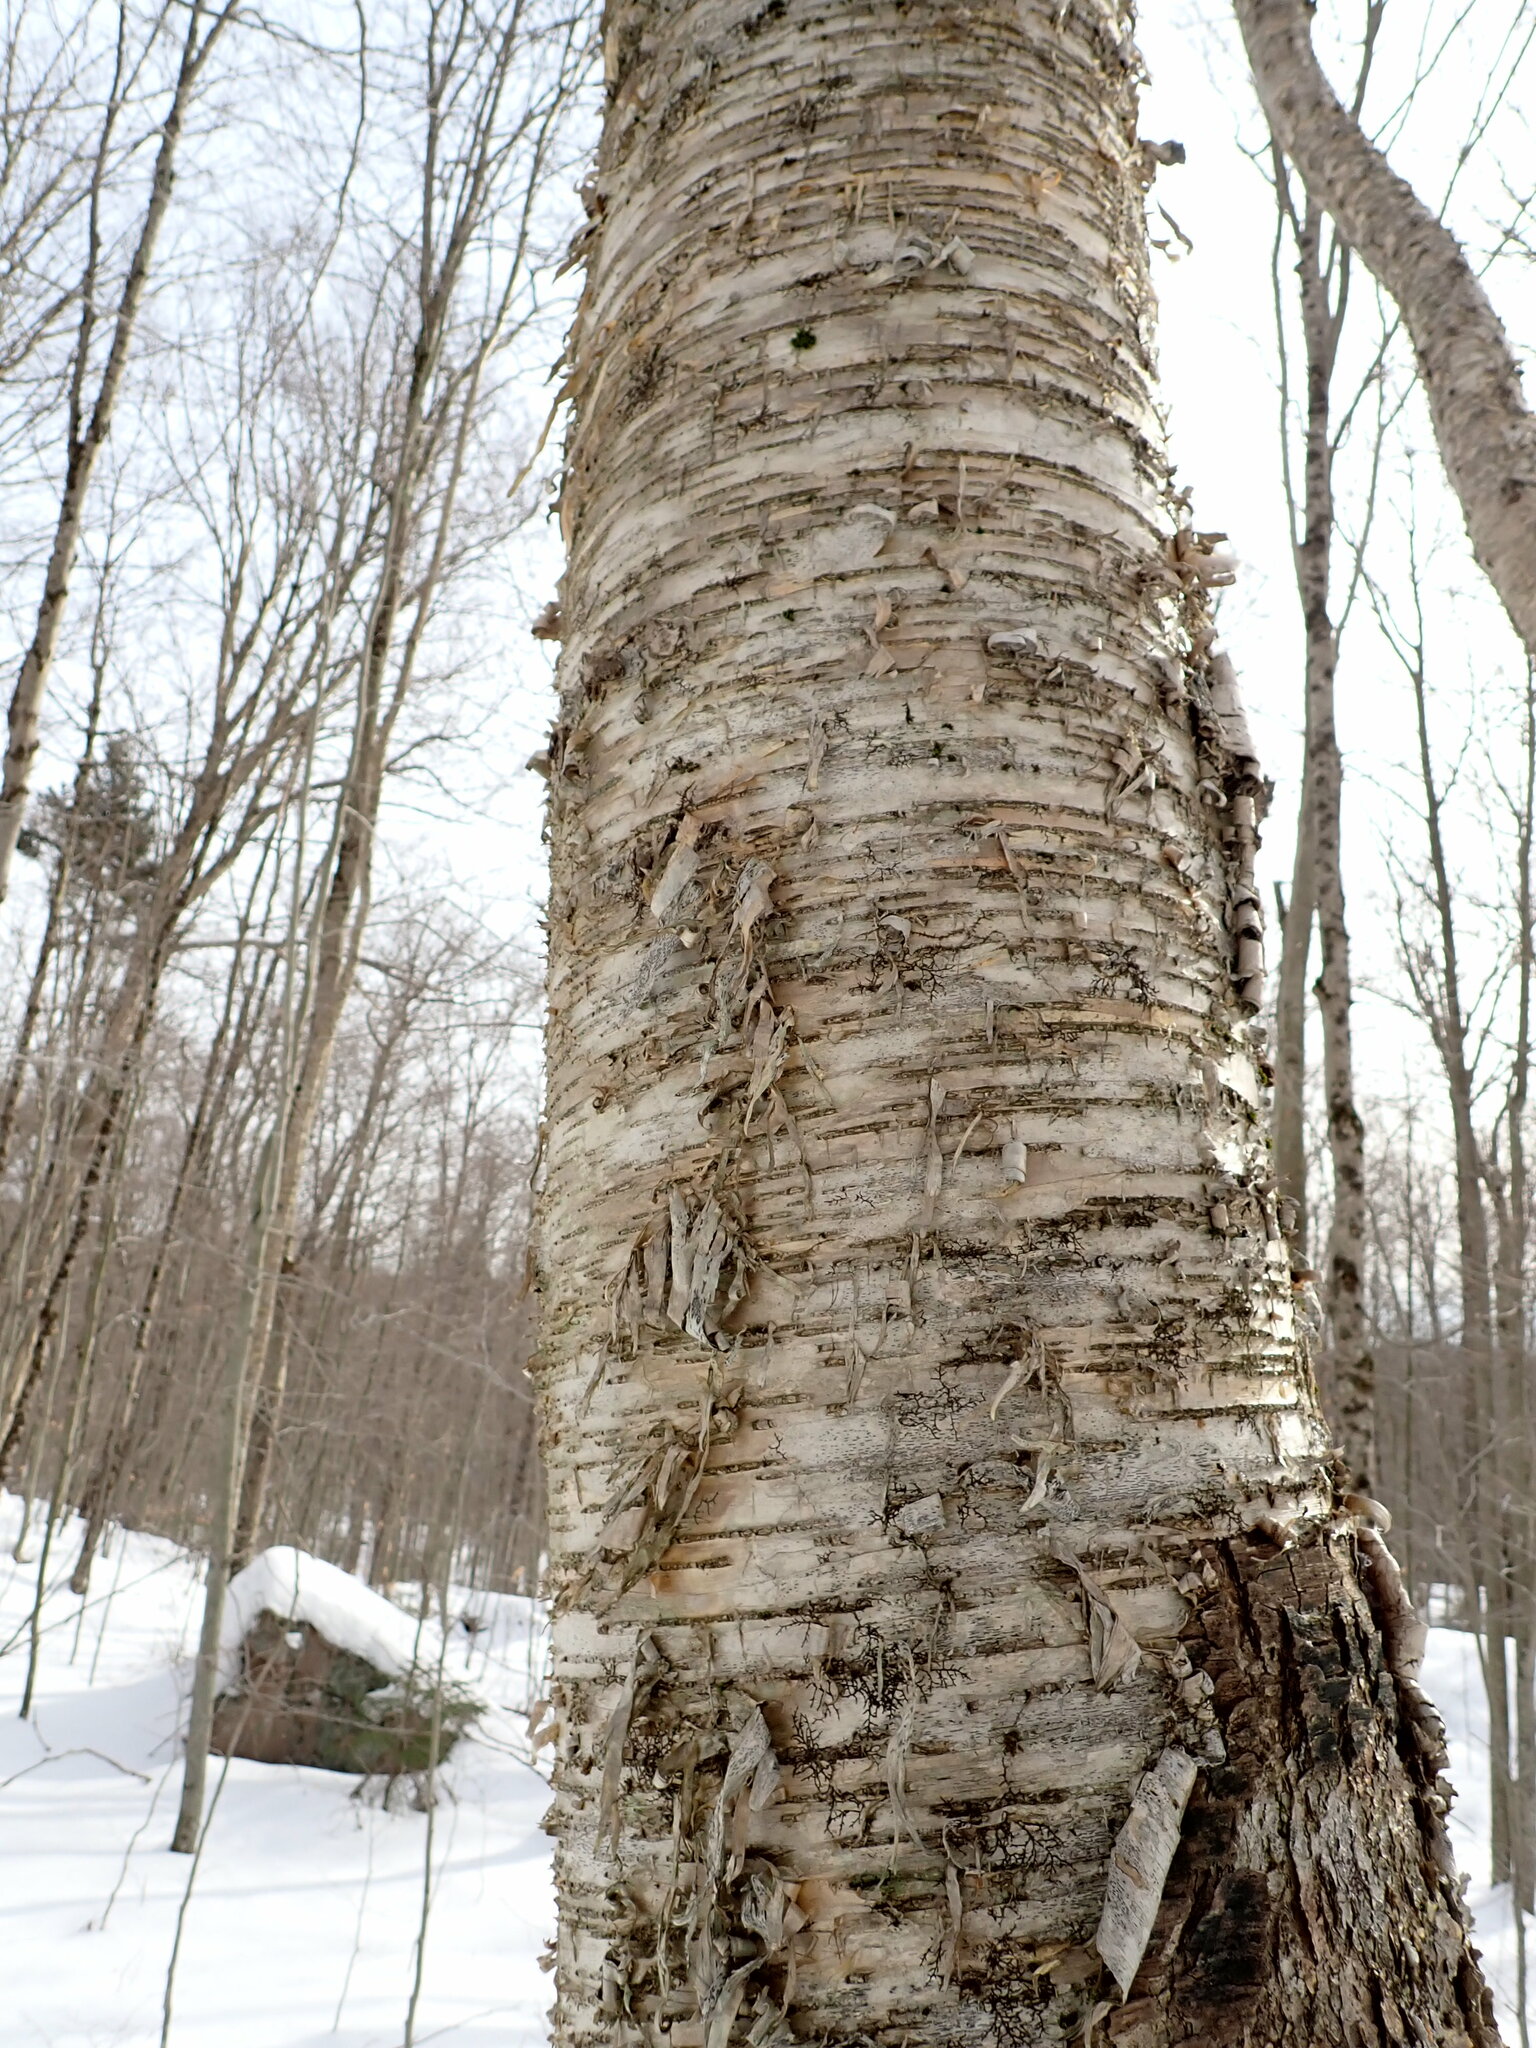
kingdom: Plantae
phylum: Tracheophyta
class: Magnoliopsida
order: Fagales
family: Betulaceae
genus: Betula
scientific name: Betula alleghaniensis
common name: Yellow birch
